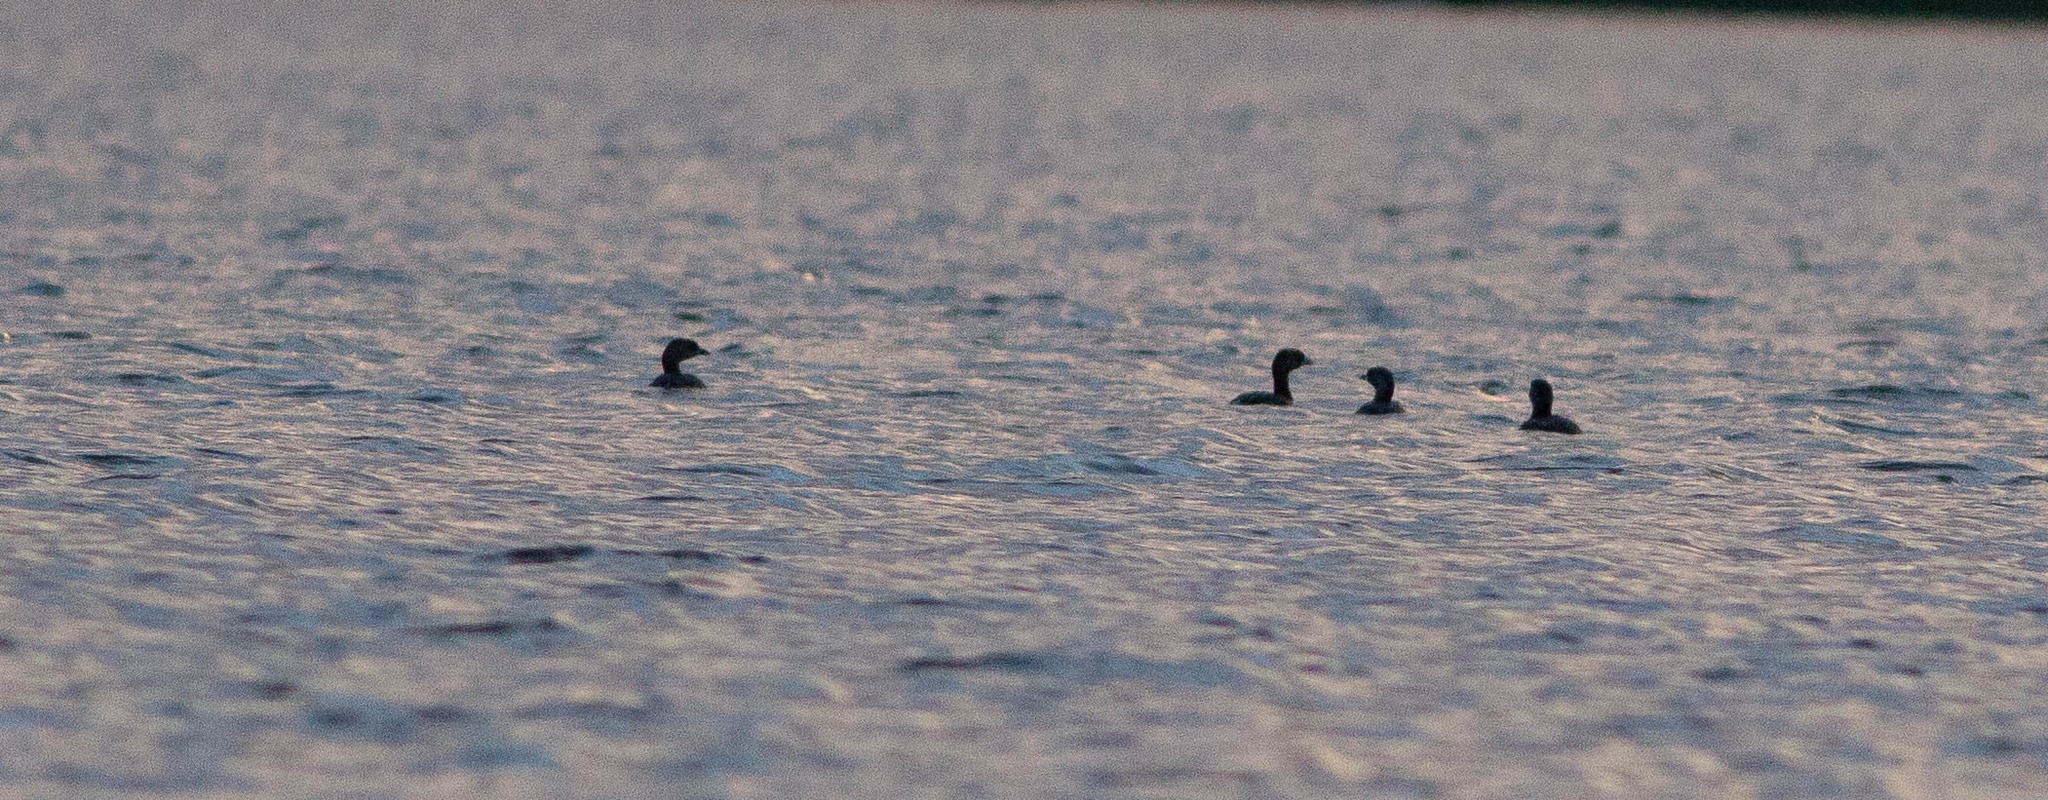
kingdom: Animalia
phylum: Chordata
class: Aves
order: Podicipediformes
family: Podicipedidae
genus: Podilymbus
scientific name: Podilymbus podiceps
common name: Pied-billed grebe
